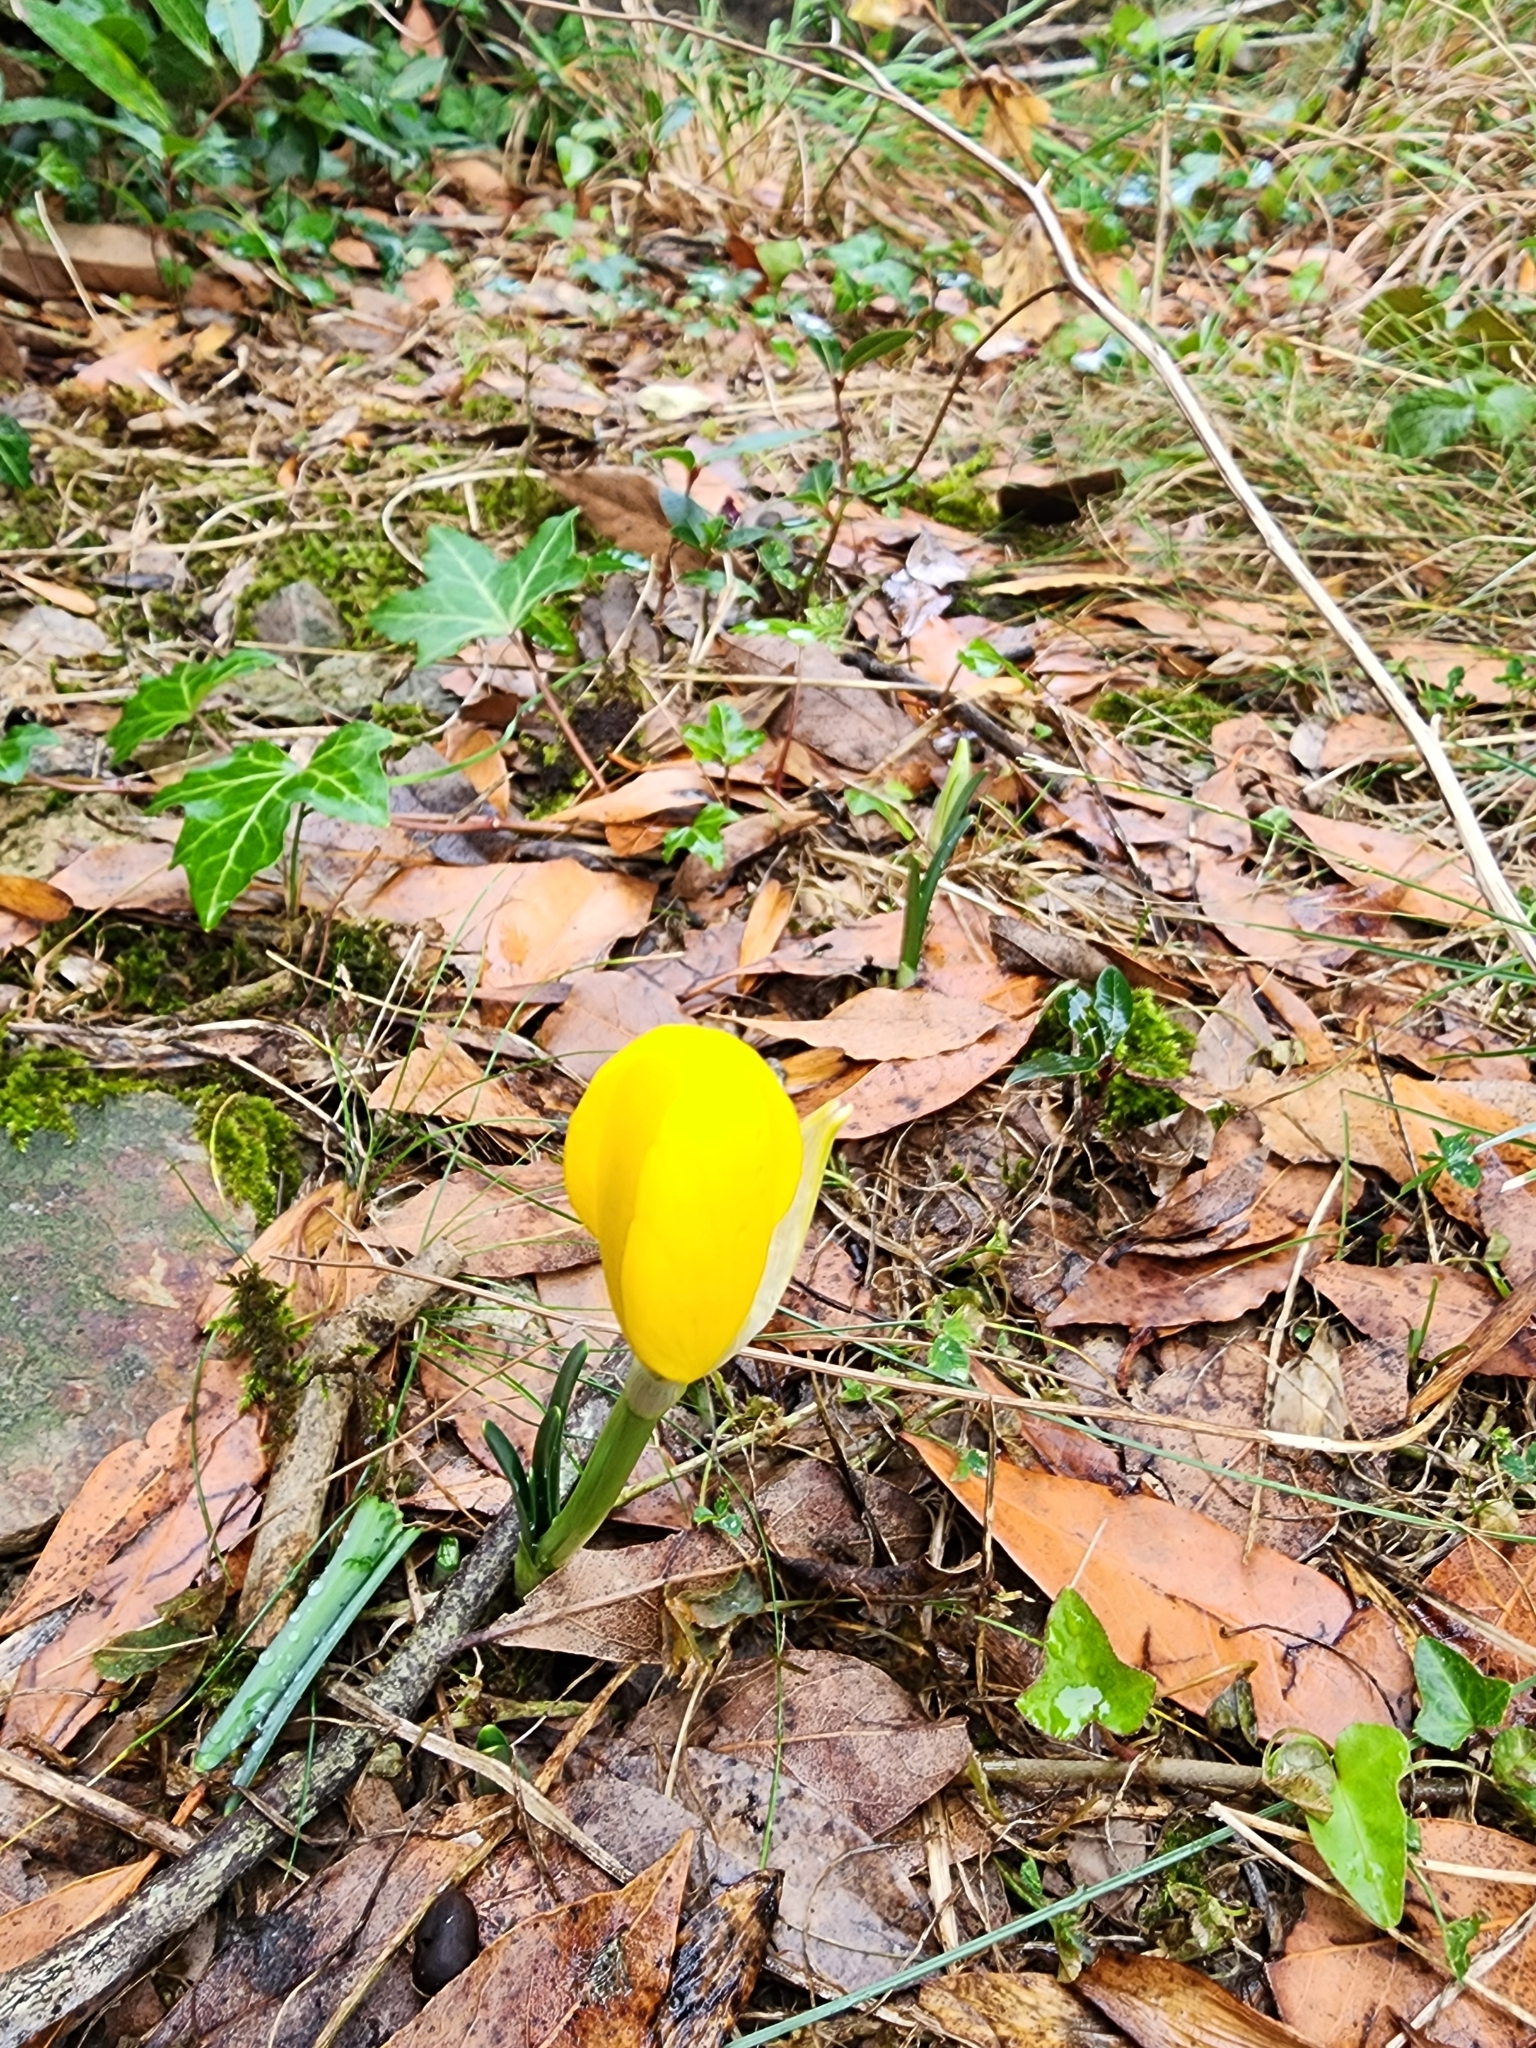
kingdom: Plantae
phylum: Tracheophyta
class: Liliopsida
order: Asparagales
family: Amaryllidaceae
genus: Sternbergia
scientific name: Sternbergia lutea
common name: Winter daffodil
